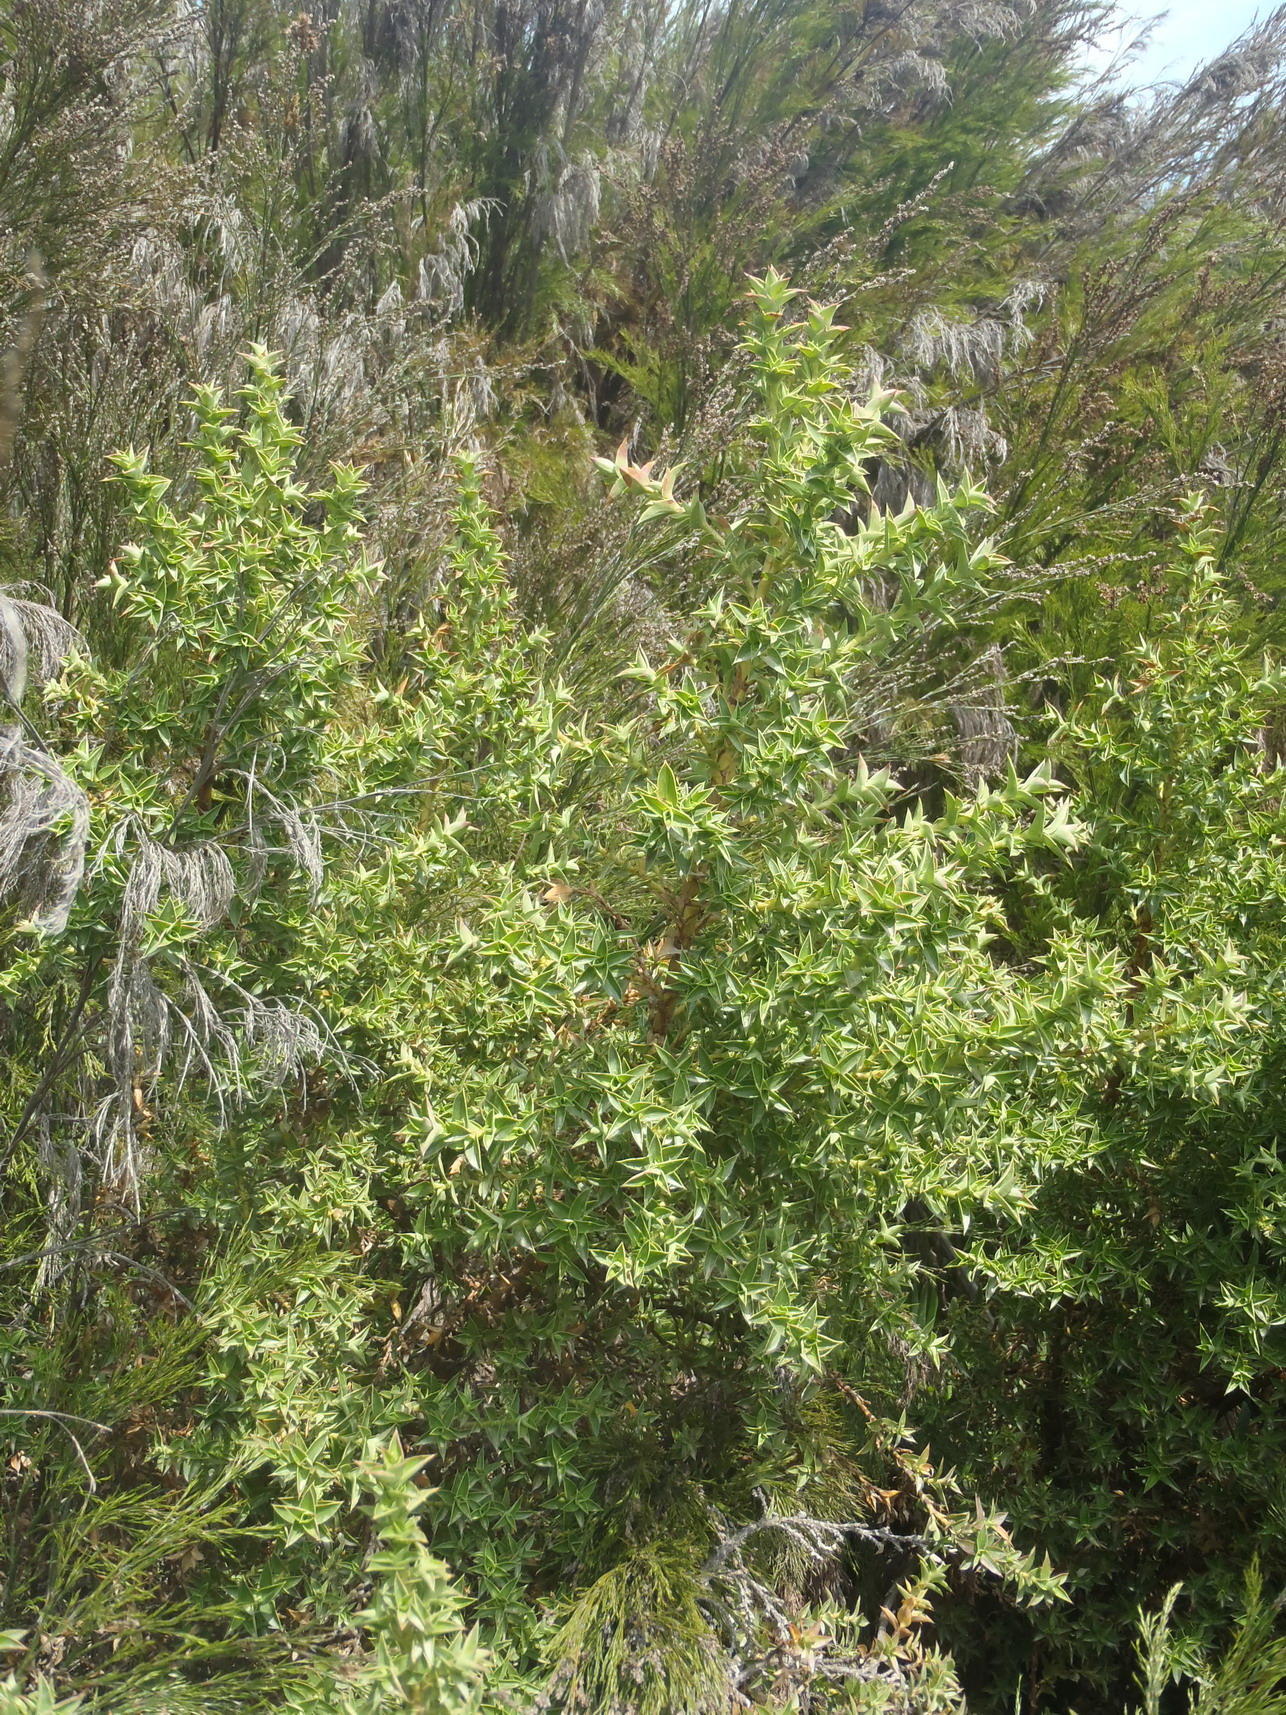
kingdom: Plantae
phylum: Tracheophyta
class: Magnoliopsida
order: Rosales
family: Rosaceae
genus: Cliffortia
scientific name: Cliffortia ilicifolia
